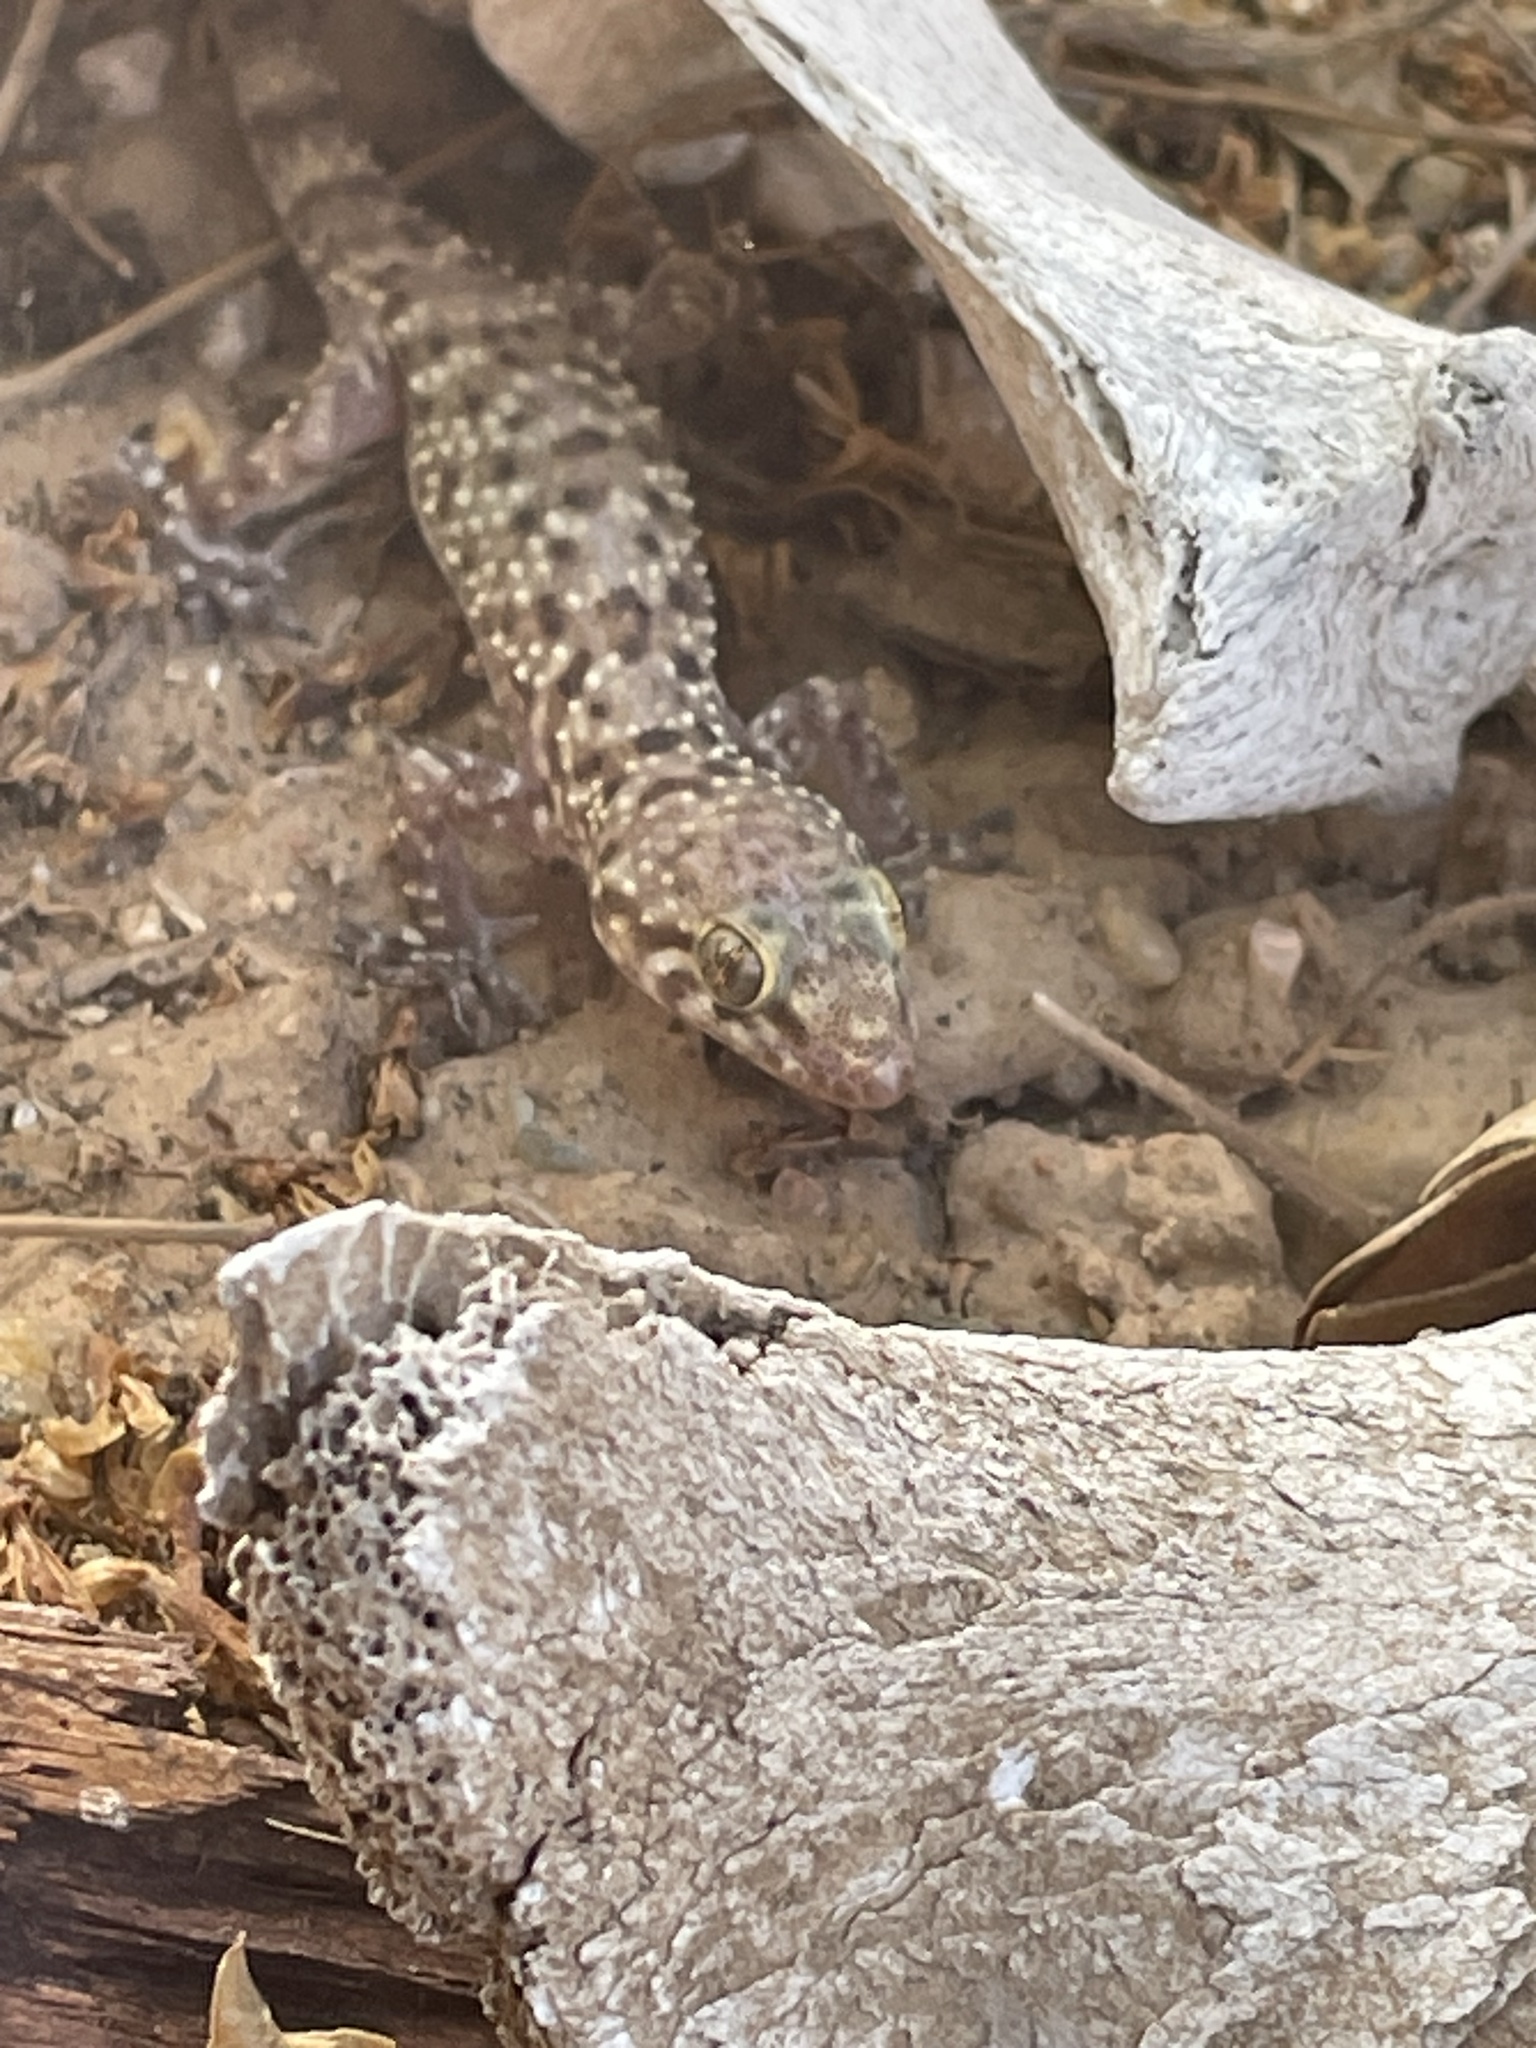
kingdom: Animalia
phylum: Chordata
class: Squamata
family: Gekkonidae
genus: Hemidactylus
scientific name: Hemidactylus turcicus
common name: Turkish gecko
